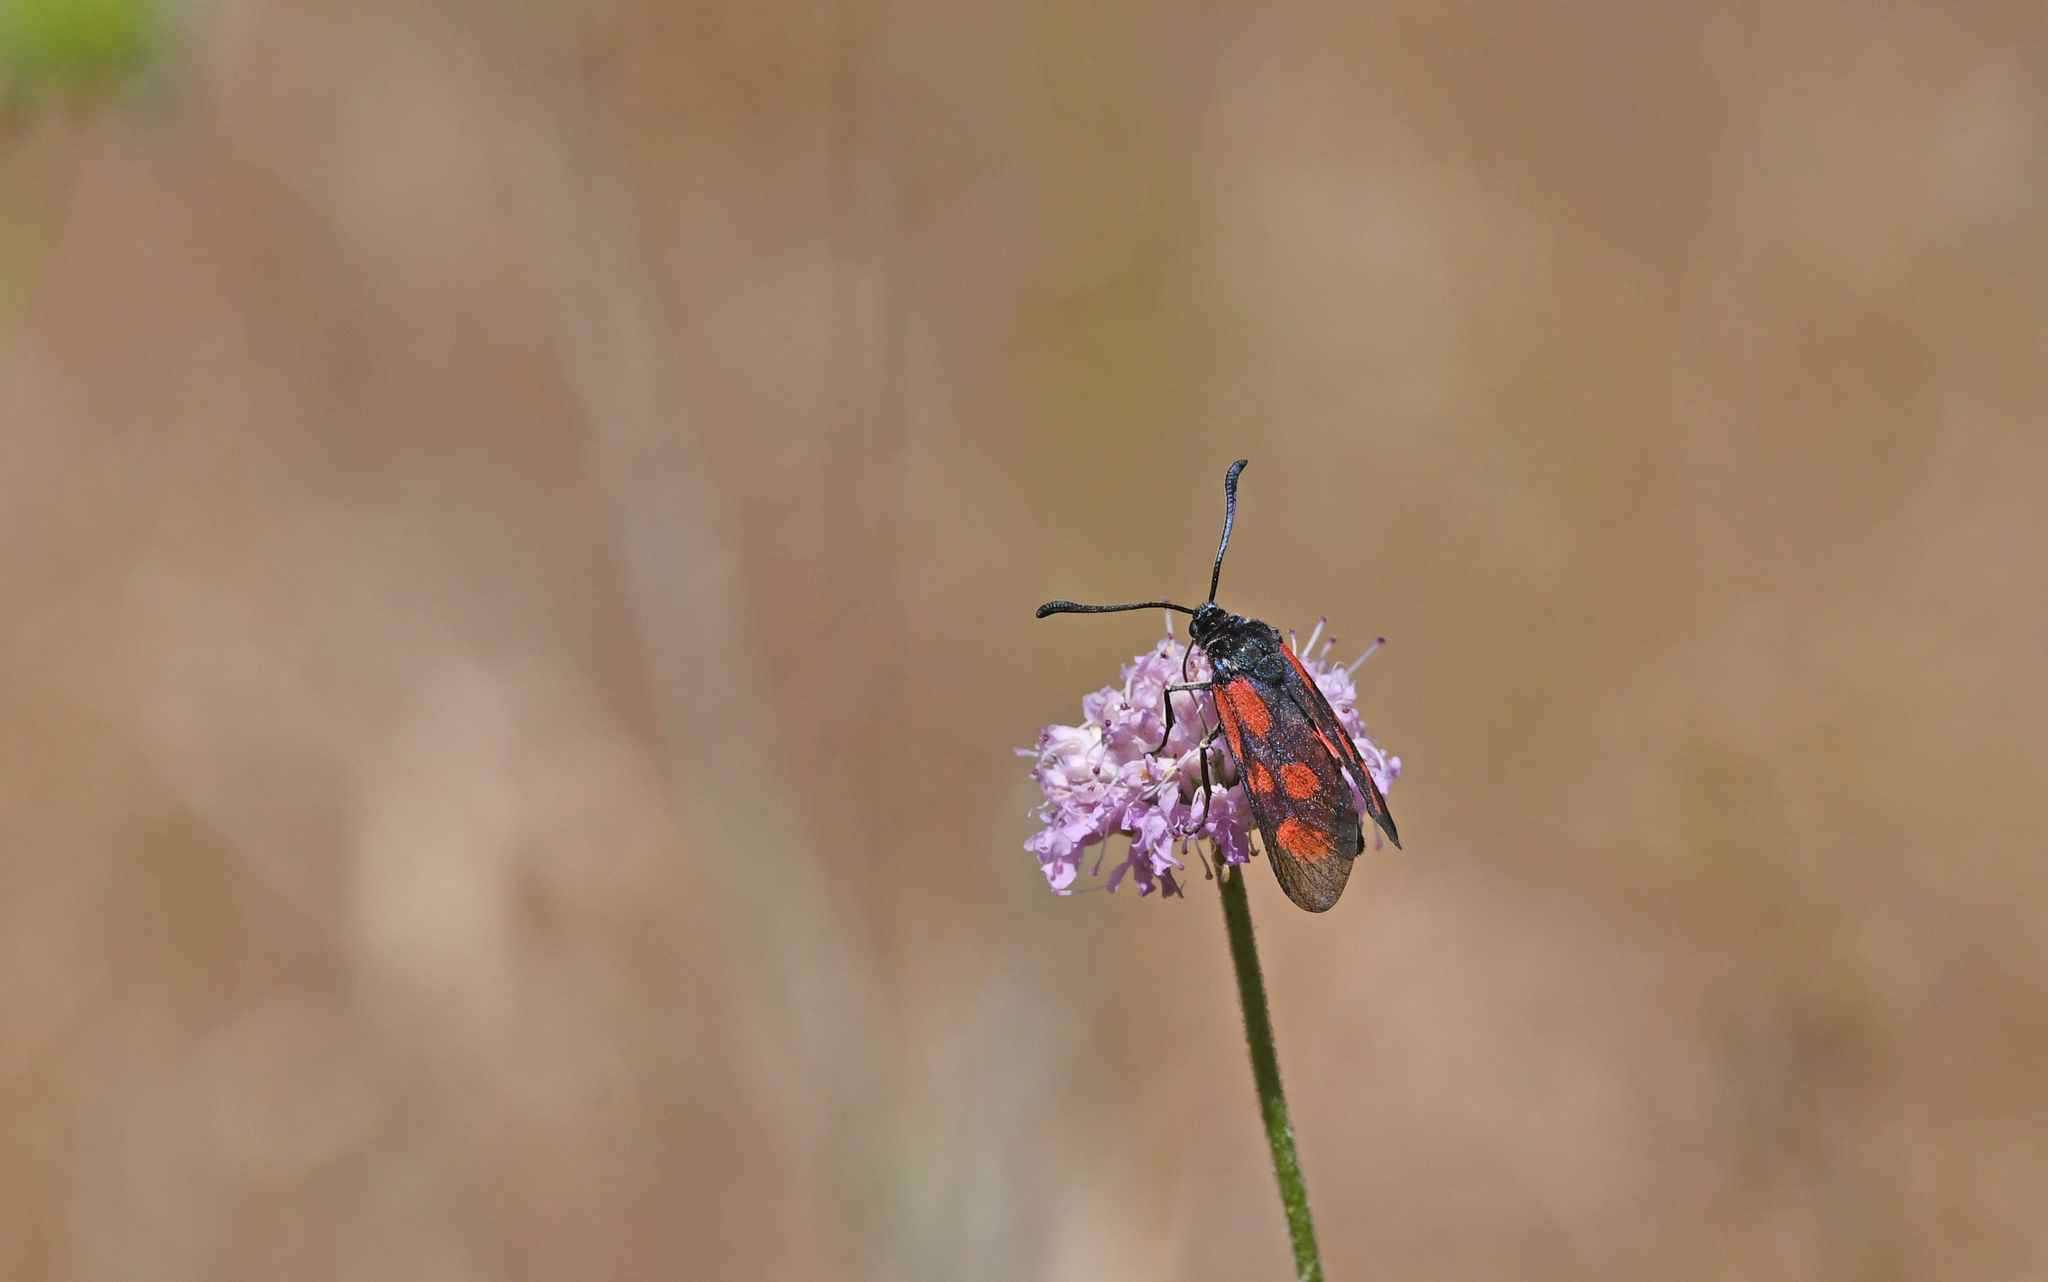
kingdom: Animalia
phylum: Arthropoda
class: Insecta
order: Lepidoptera
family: Zygaenidae
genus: Zygaena
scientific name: Zygaena loti
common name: Slender scotch burnet
